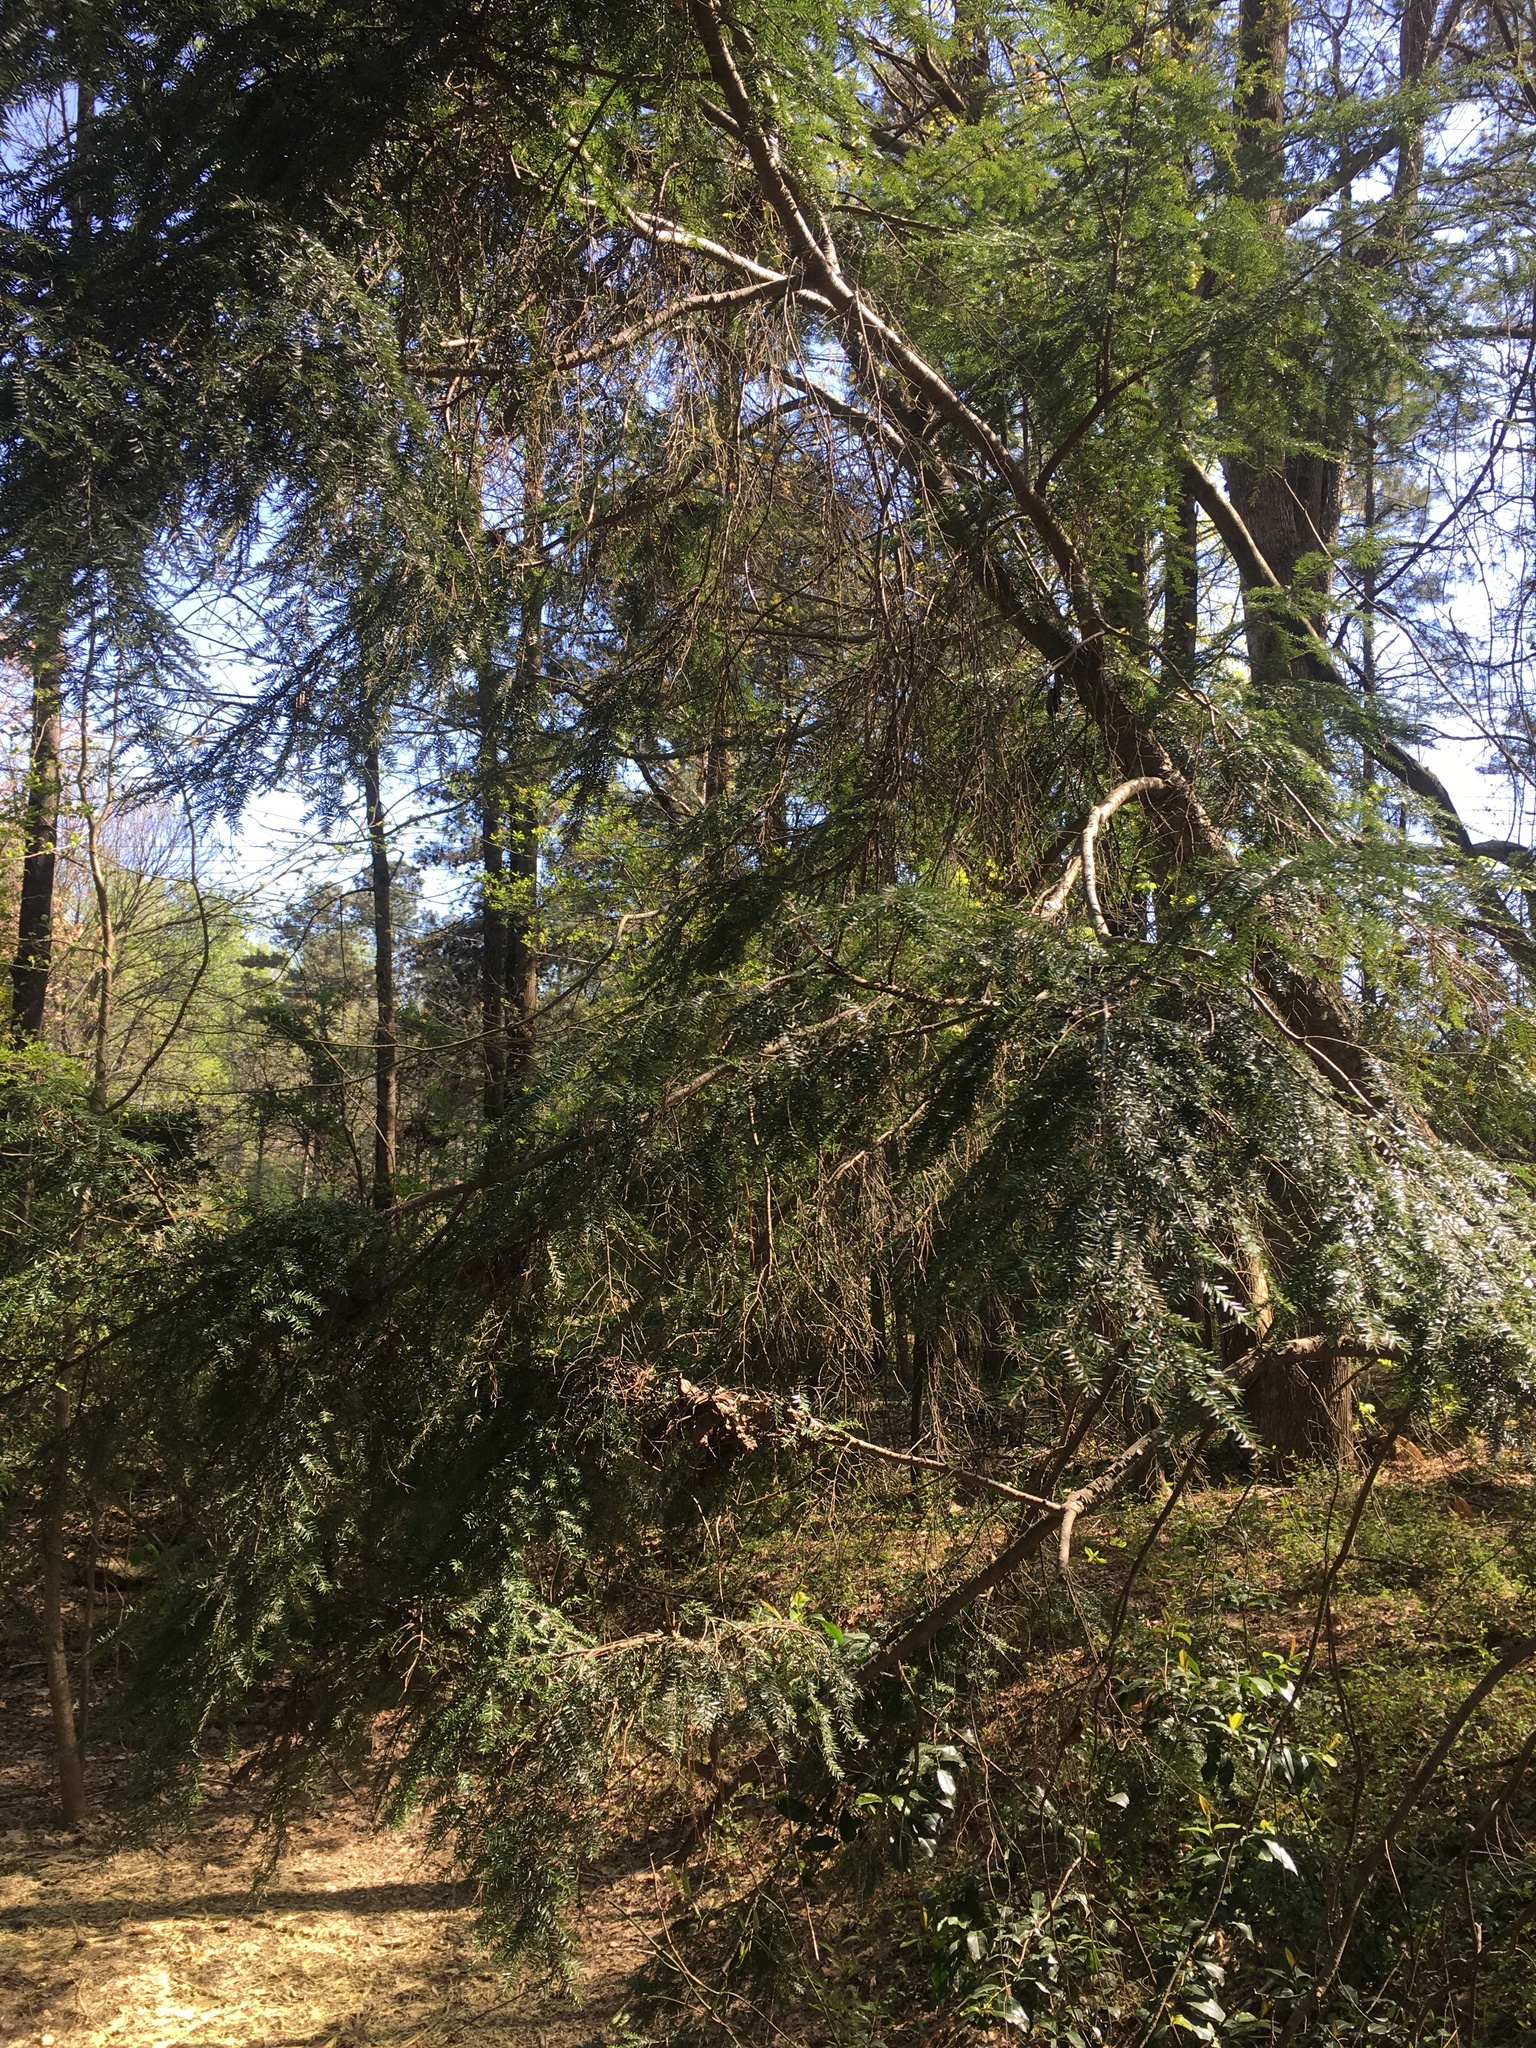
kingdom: Plantae
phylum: Tracheophyta
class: Pinopsida
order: Pinales
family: Pinaceae
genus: Tsuga
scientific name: Tsuga canadensis
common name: Eastern hemlock
